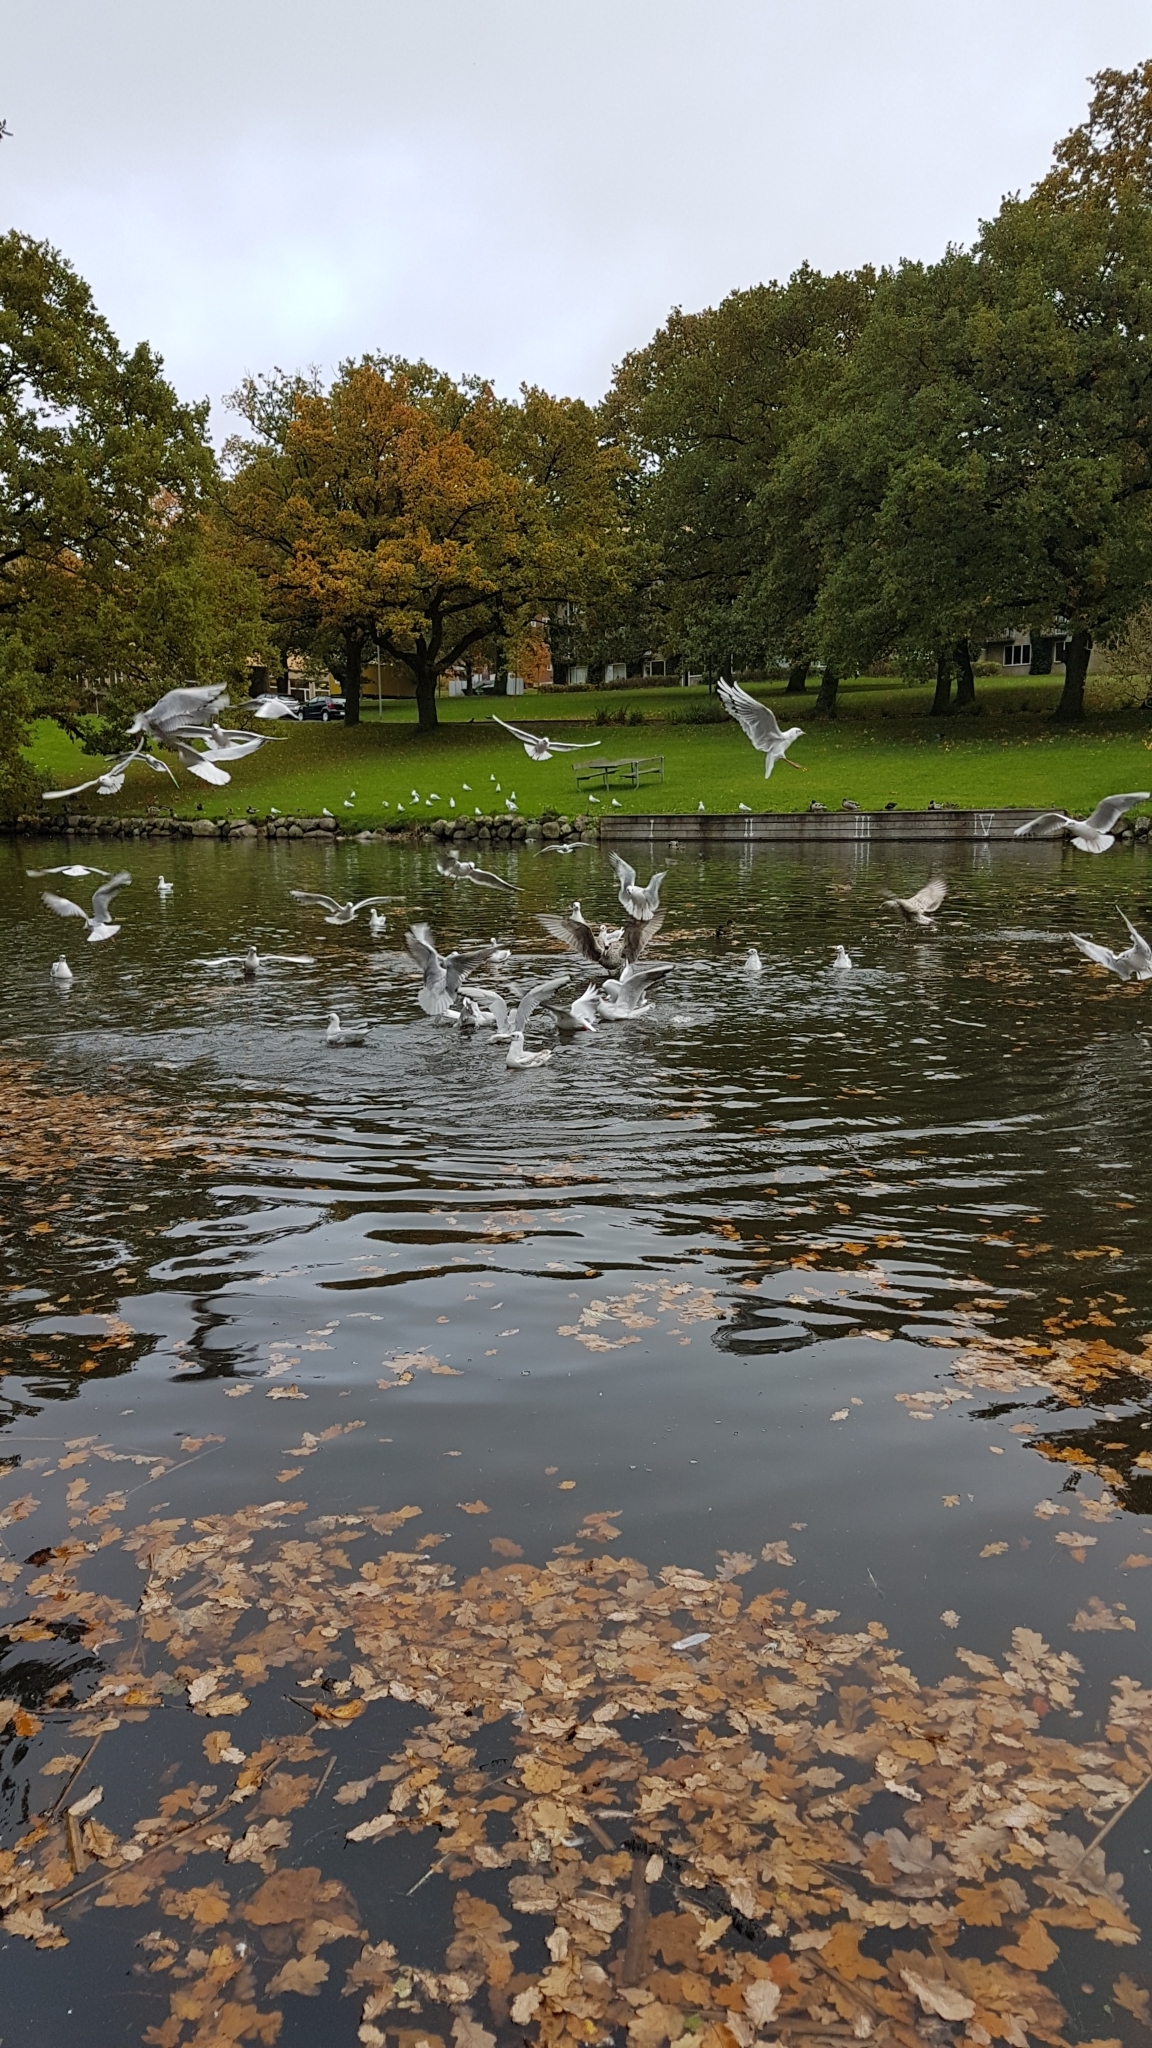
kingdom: Animalia
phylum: Chordata
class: Aves
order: Charadriiformes
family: Laridae
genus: Chroicocephalus
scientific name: Chroicocephalus ridibundus
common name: Black-headed gull
